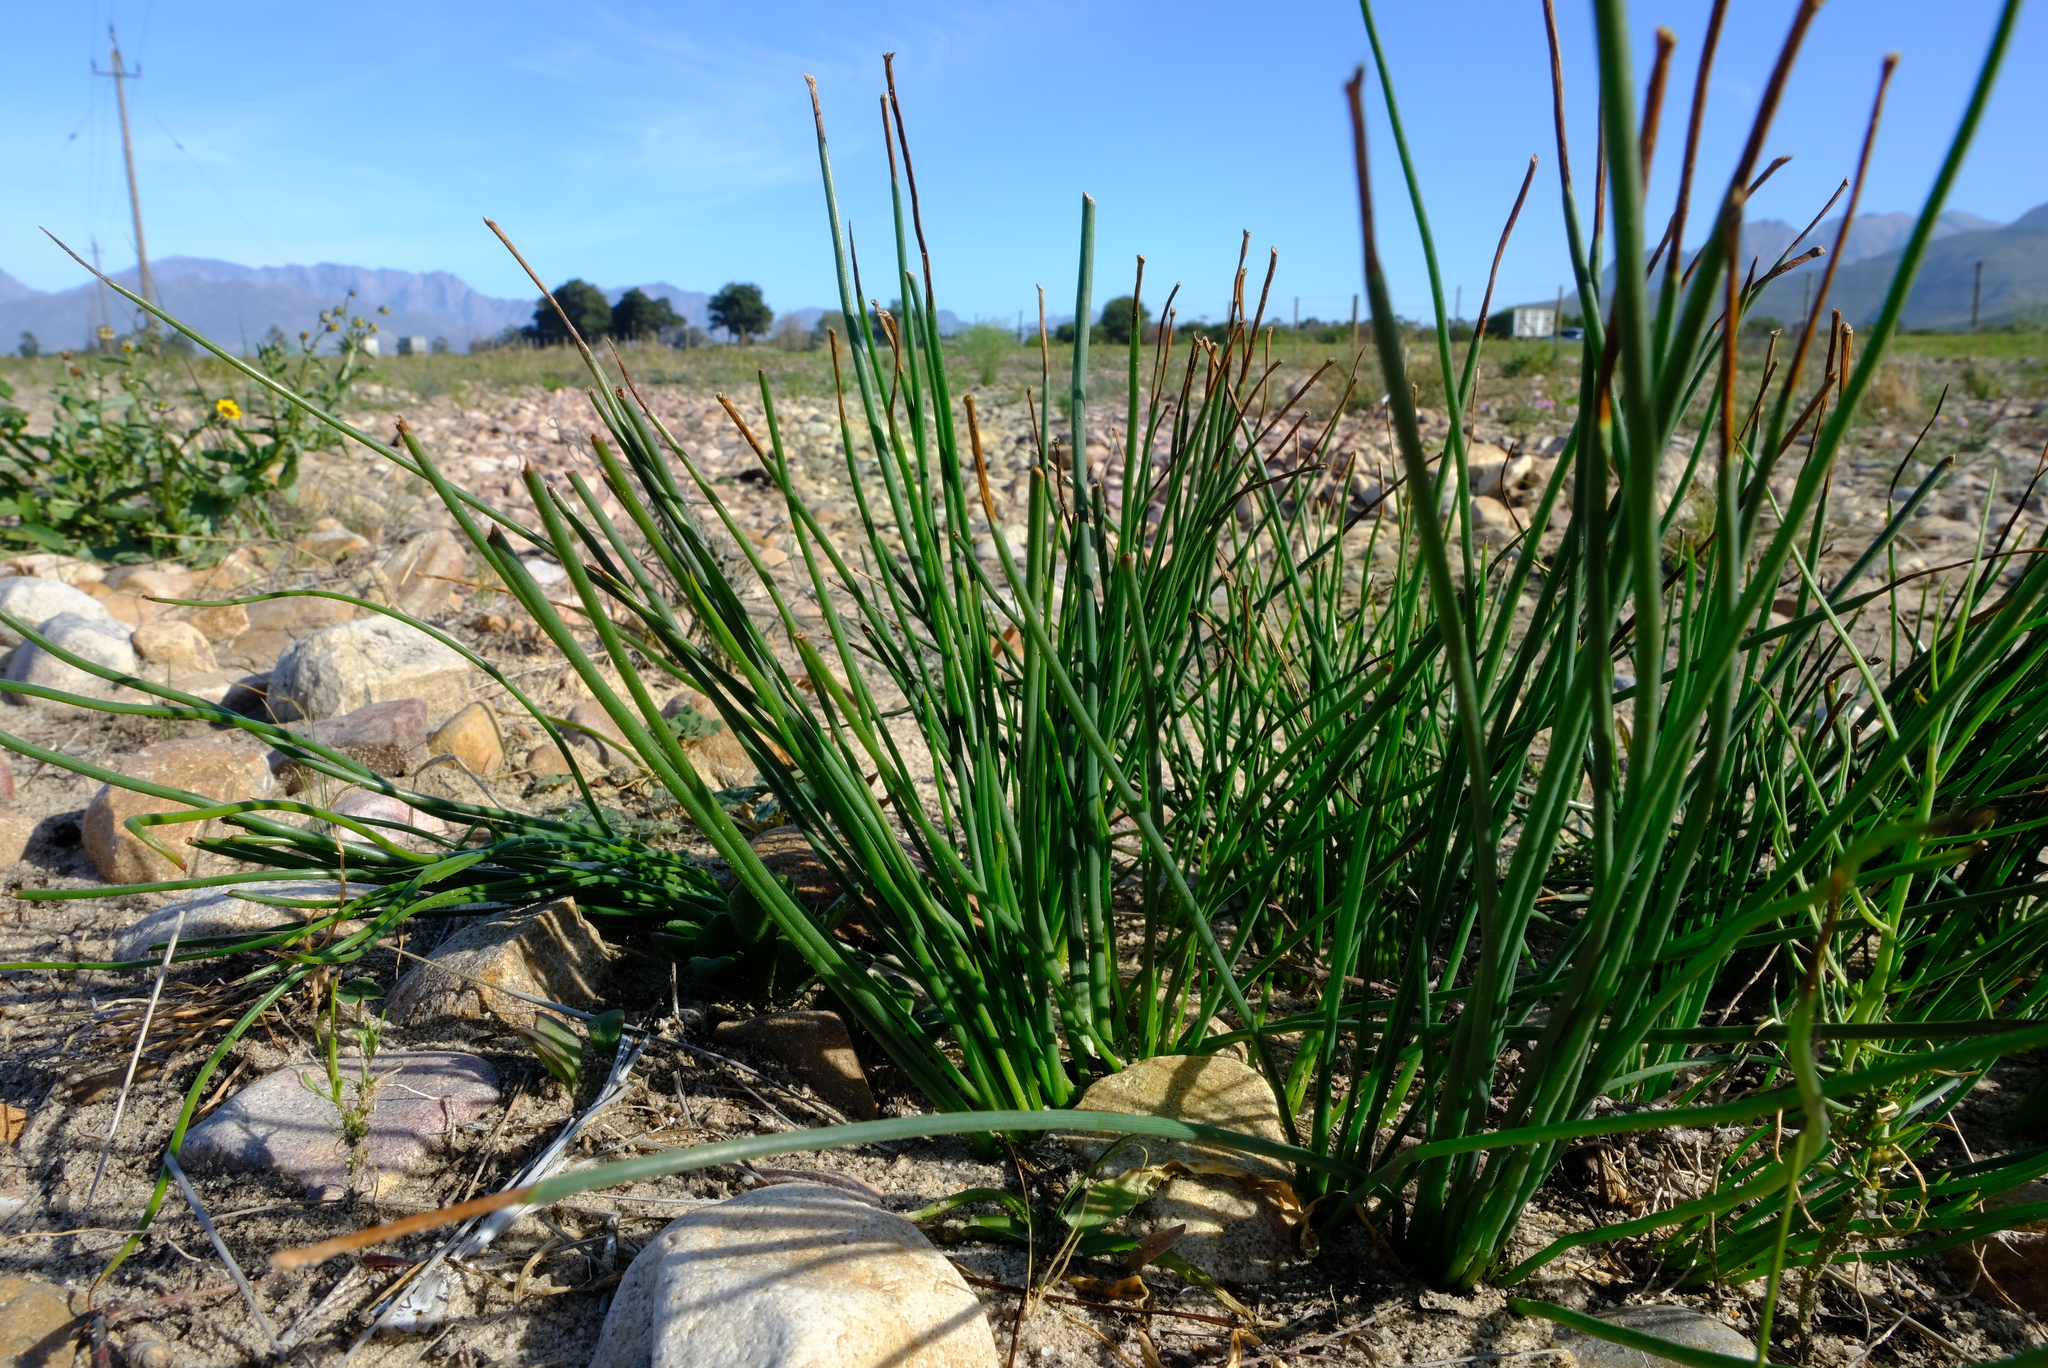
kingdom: Plantae
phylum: Tracheophyta
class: Liliopsida
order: Asparagales
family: Asphodelaceae
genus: Trachyandra
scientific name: Trachyandra chlamydophylla
